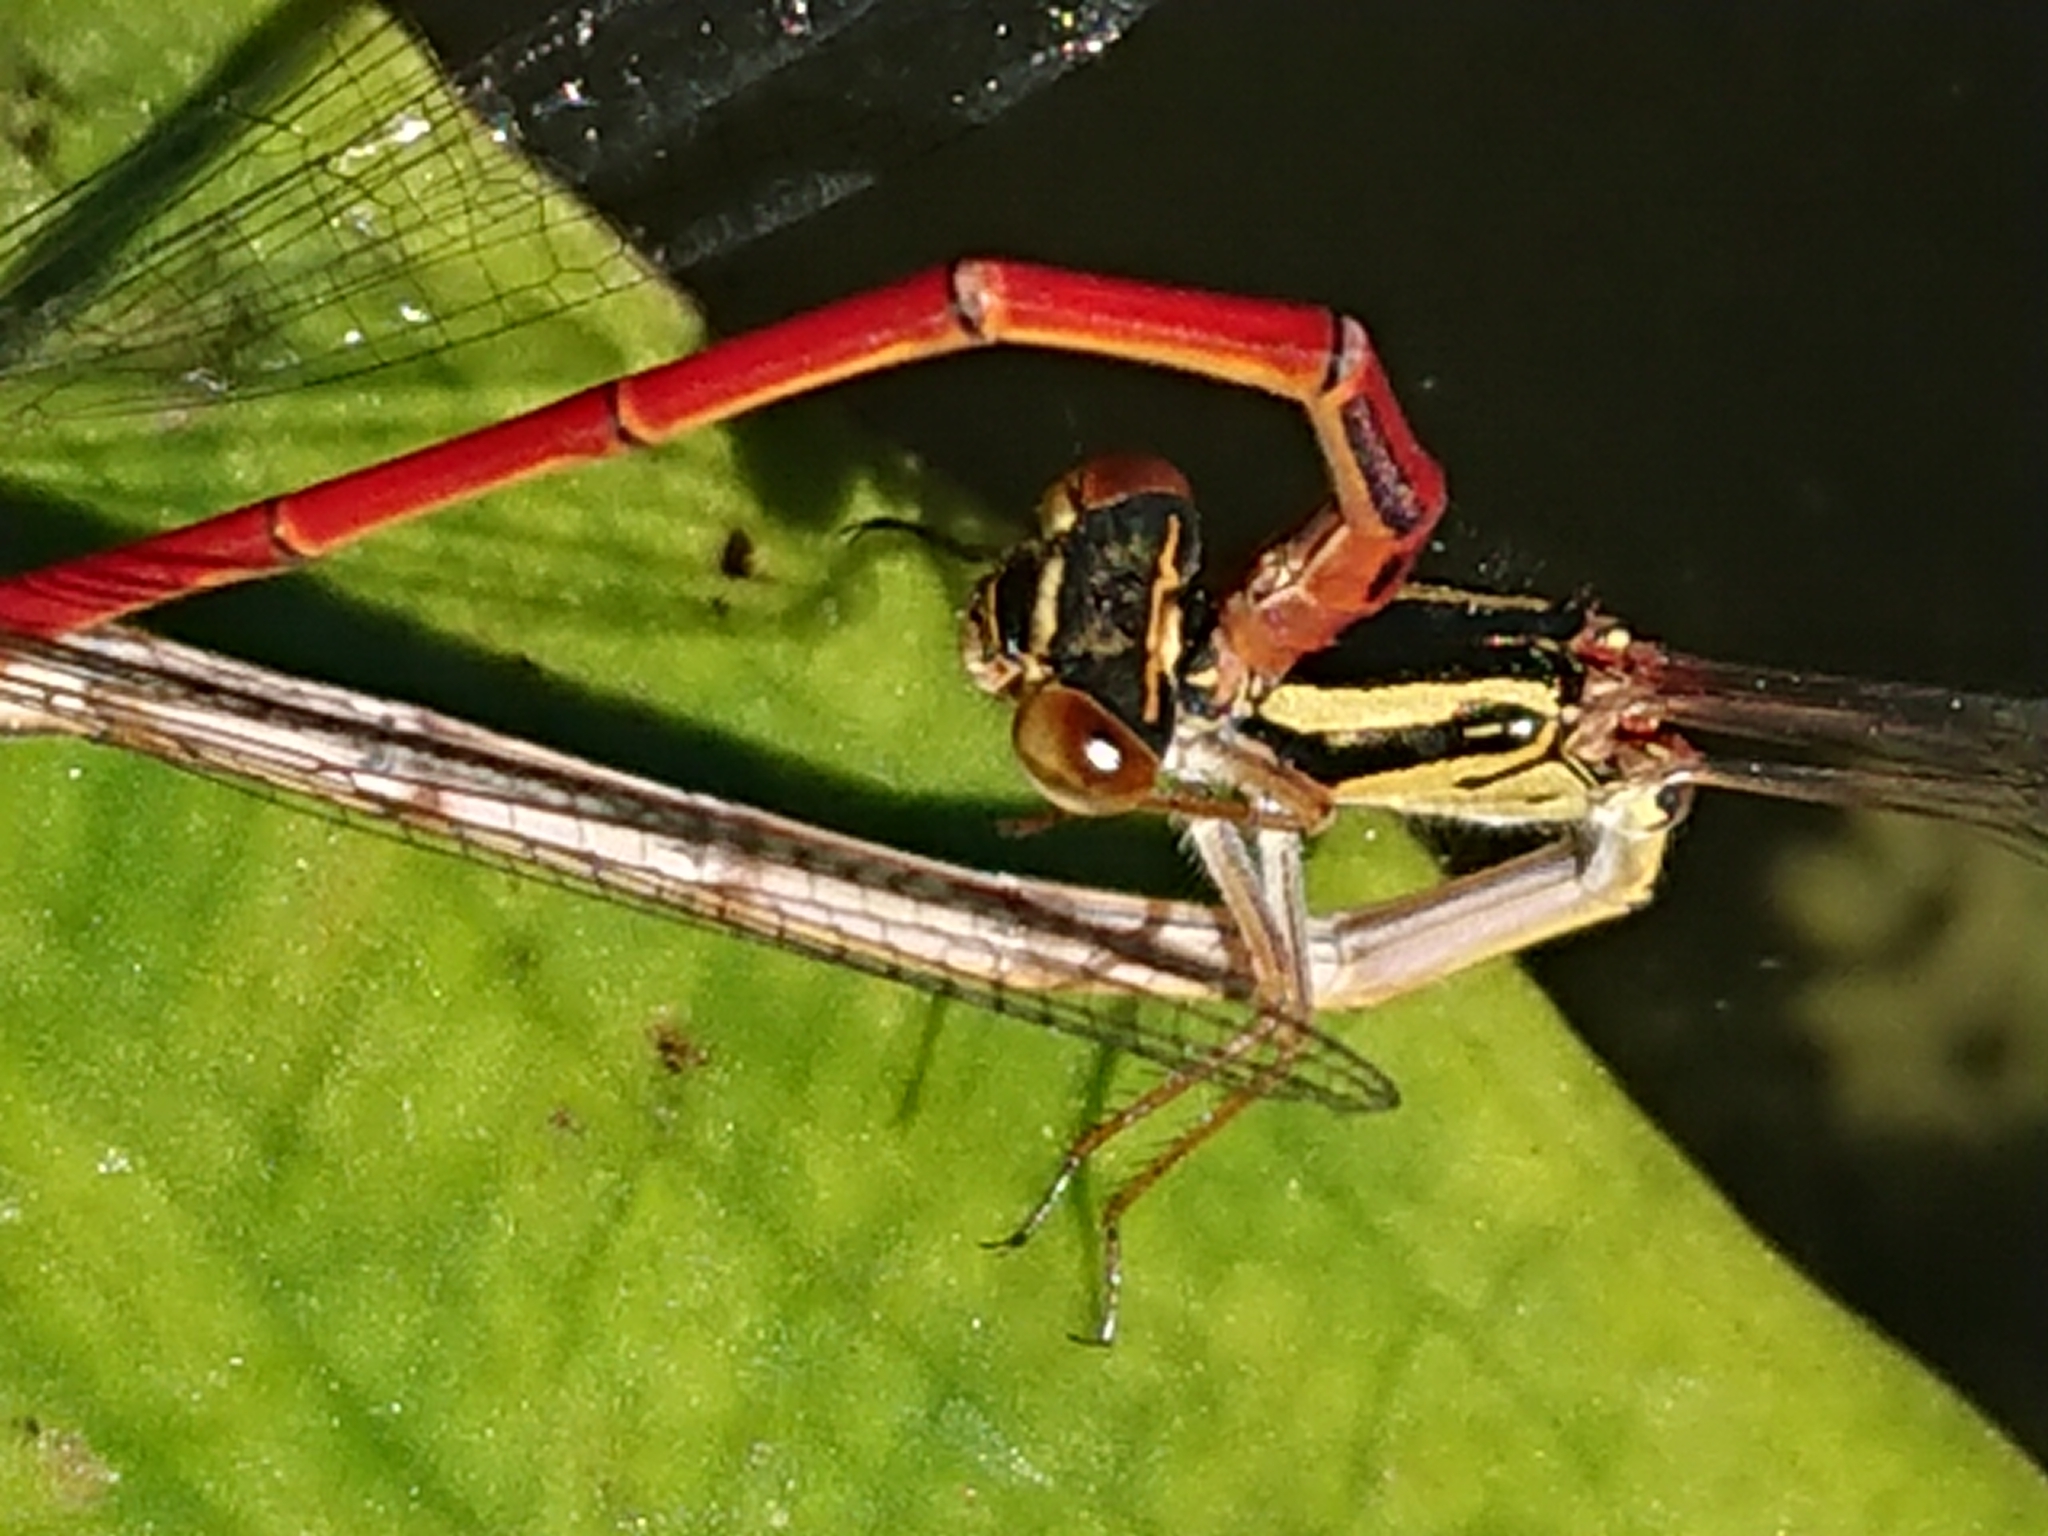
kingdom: Animalia
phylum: Arthropoda
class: Insecta
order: Odonata
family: Coenagrionidae
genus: Xanthocnemis
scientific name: Xanthocnemis zealandica
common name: Common redcoat damselfly
